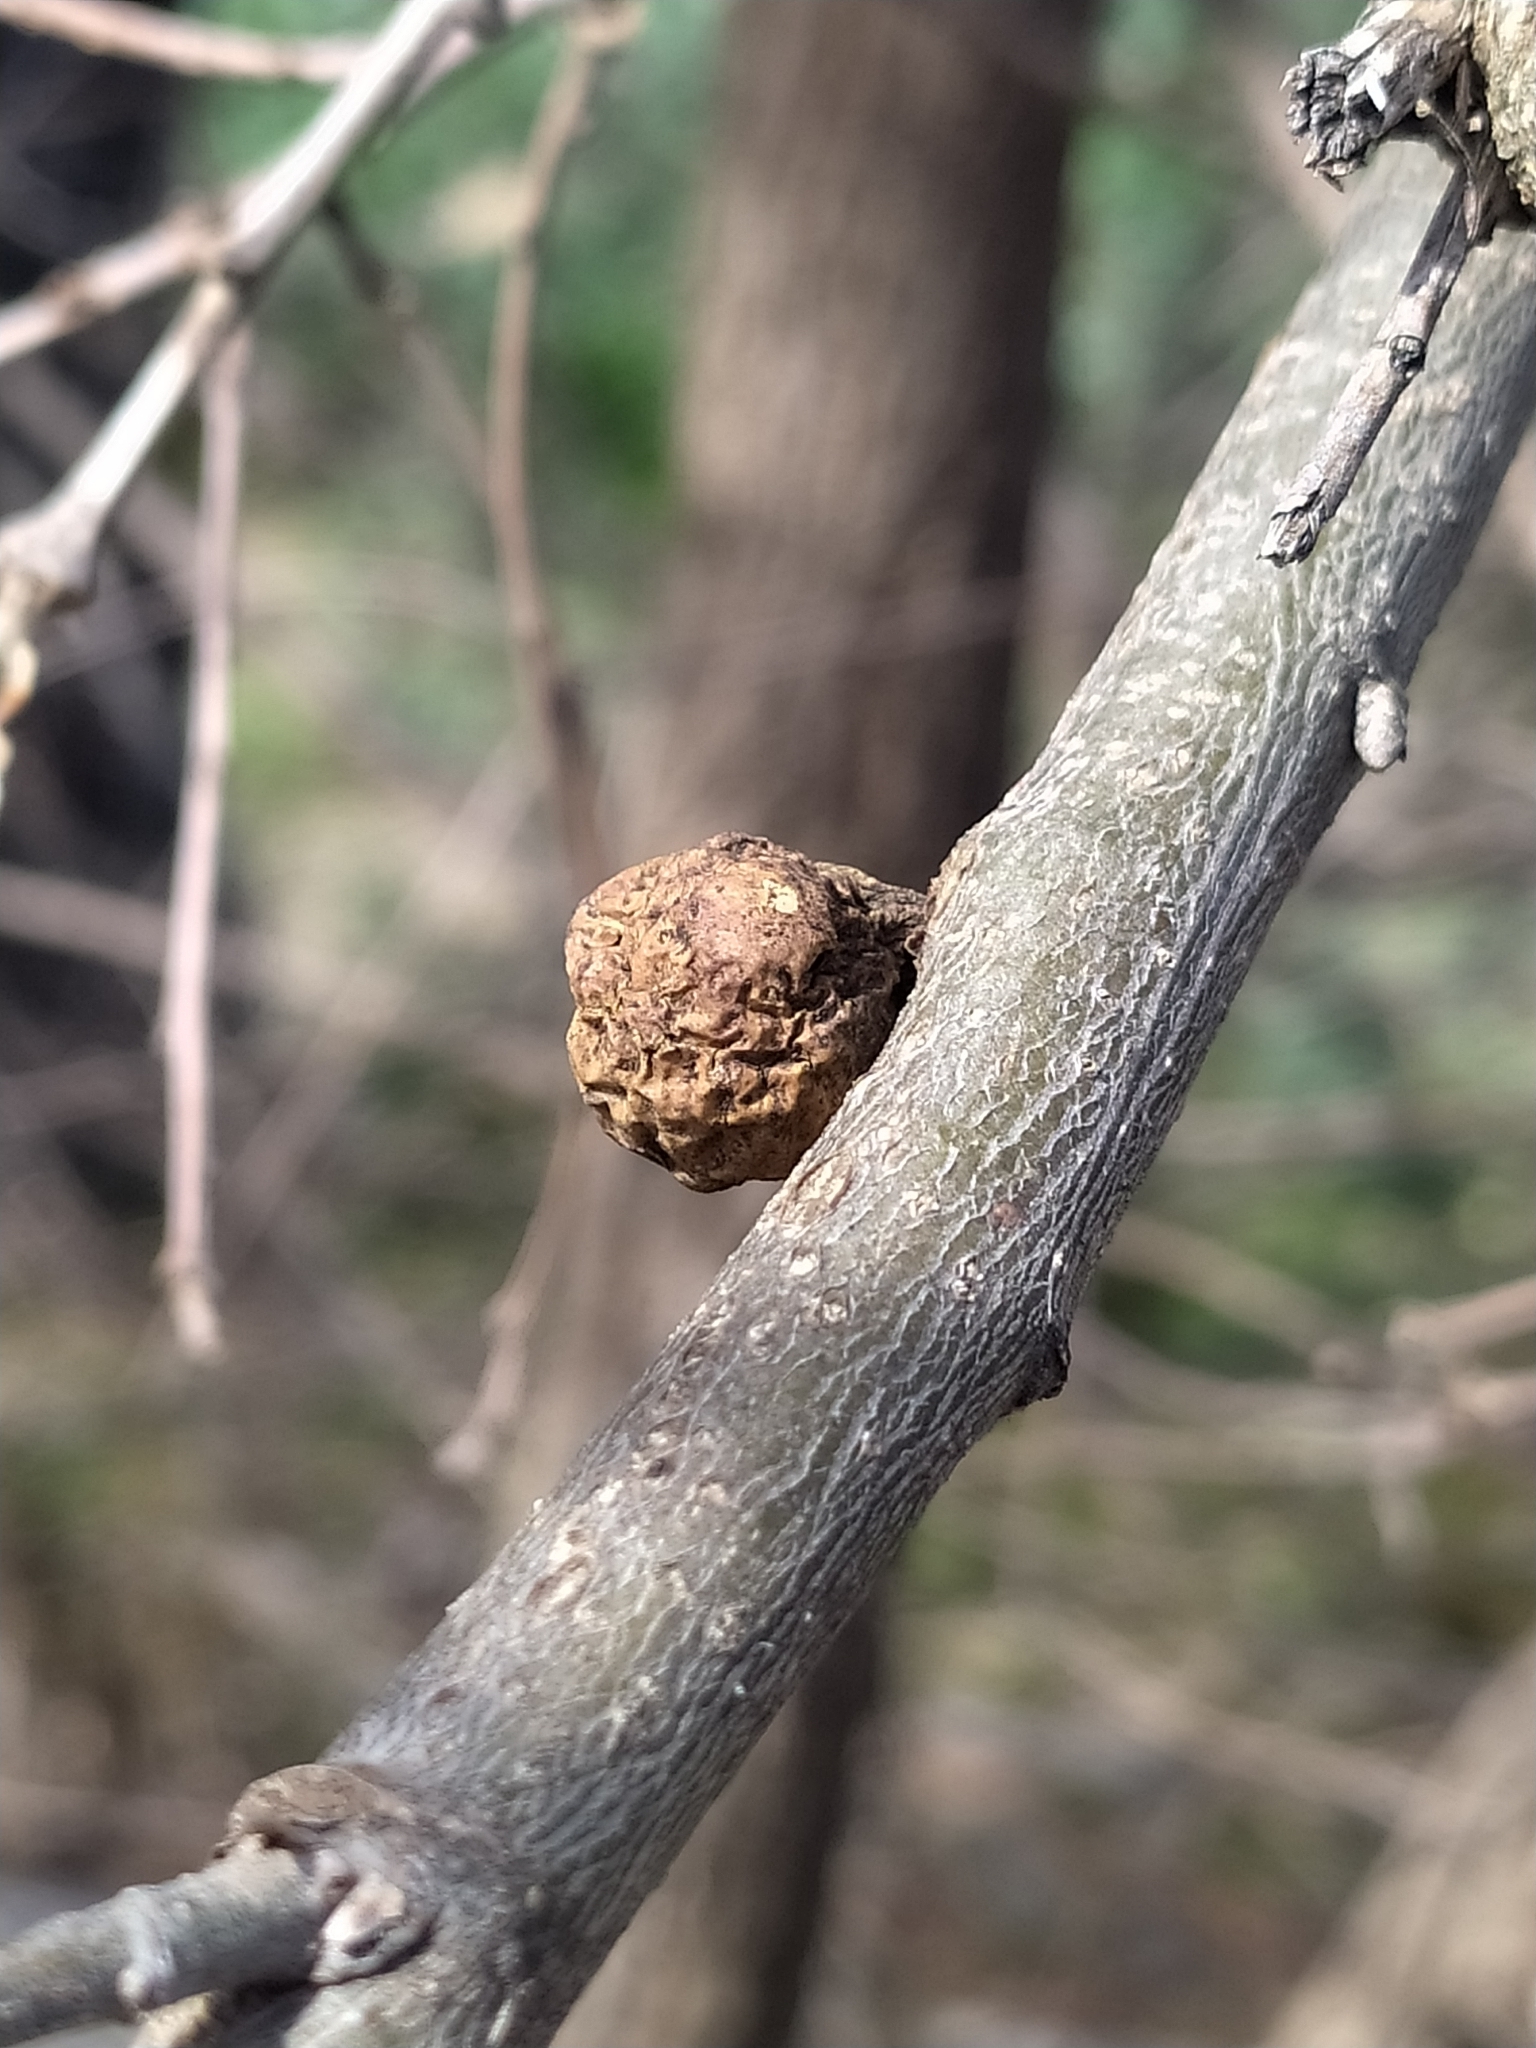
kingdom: Animalia
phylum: Arthropoda
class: Insecta
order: Hymenoptera
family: Cynipidae
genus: Andricus
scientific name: Andricus infectorius
